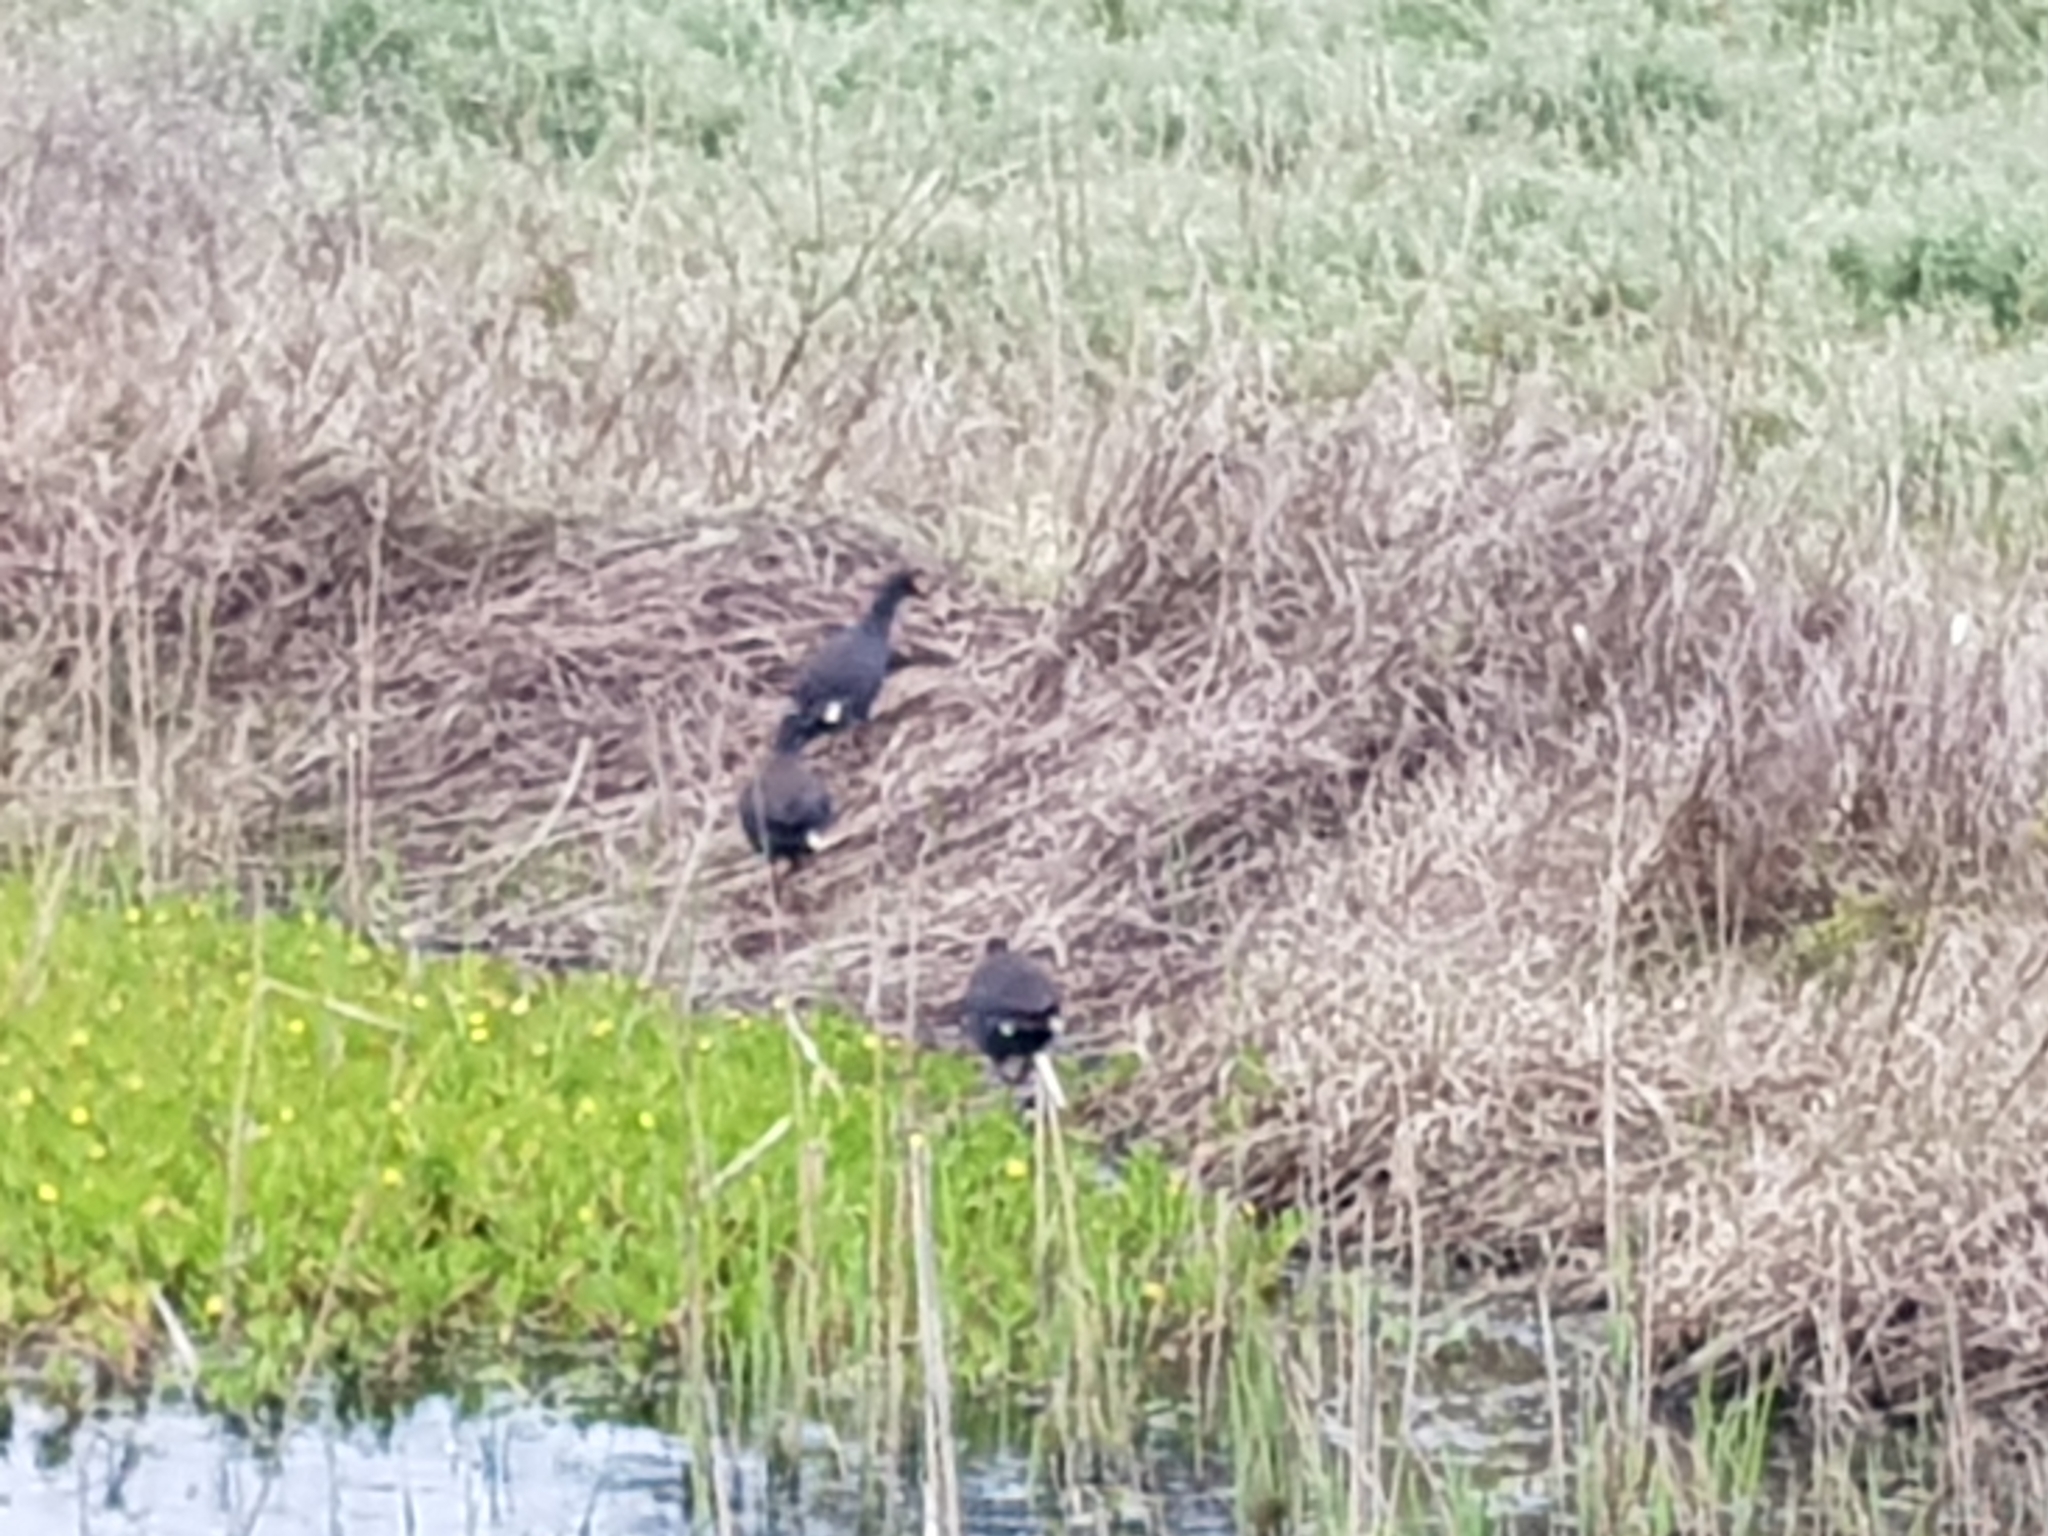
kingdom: Animalia
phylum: Chordata
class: Aves
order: Gruiformes
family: Rallidae
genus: Gallinula
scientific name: Gallinula tenebrosa
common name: Dusky moorhen
